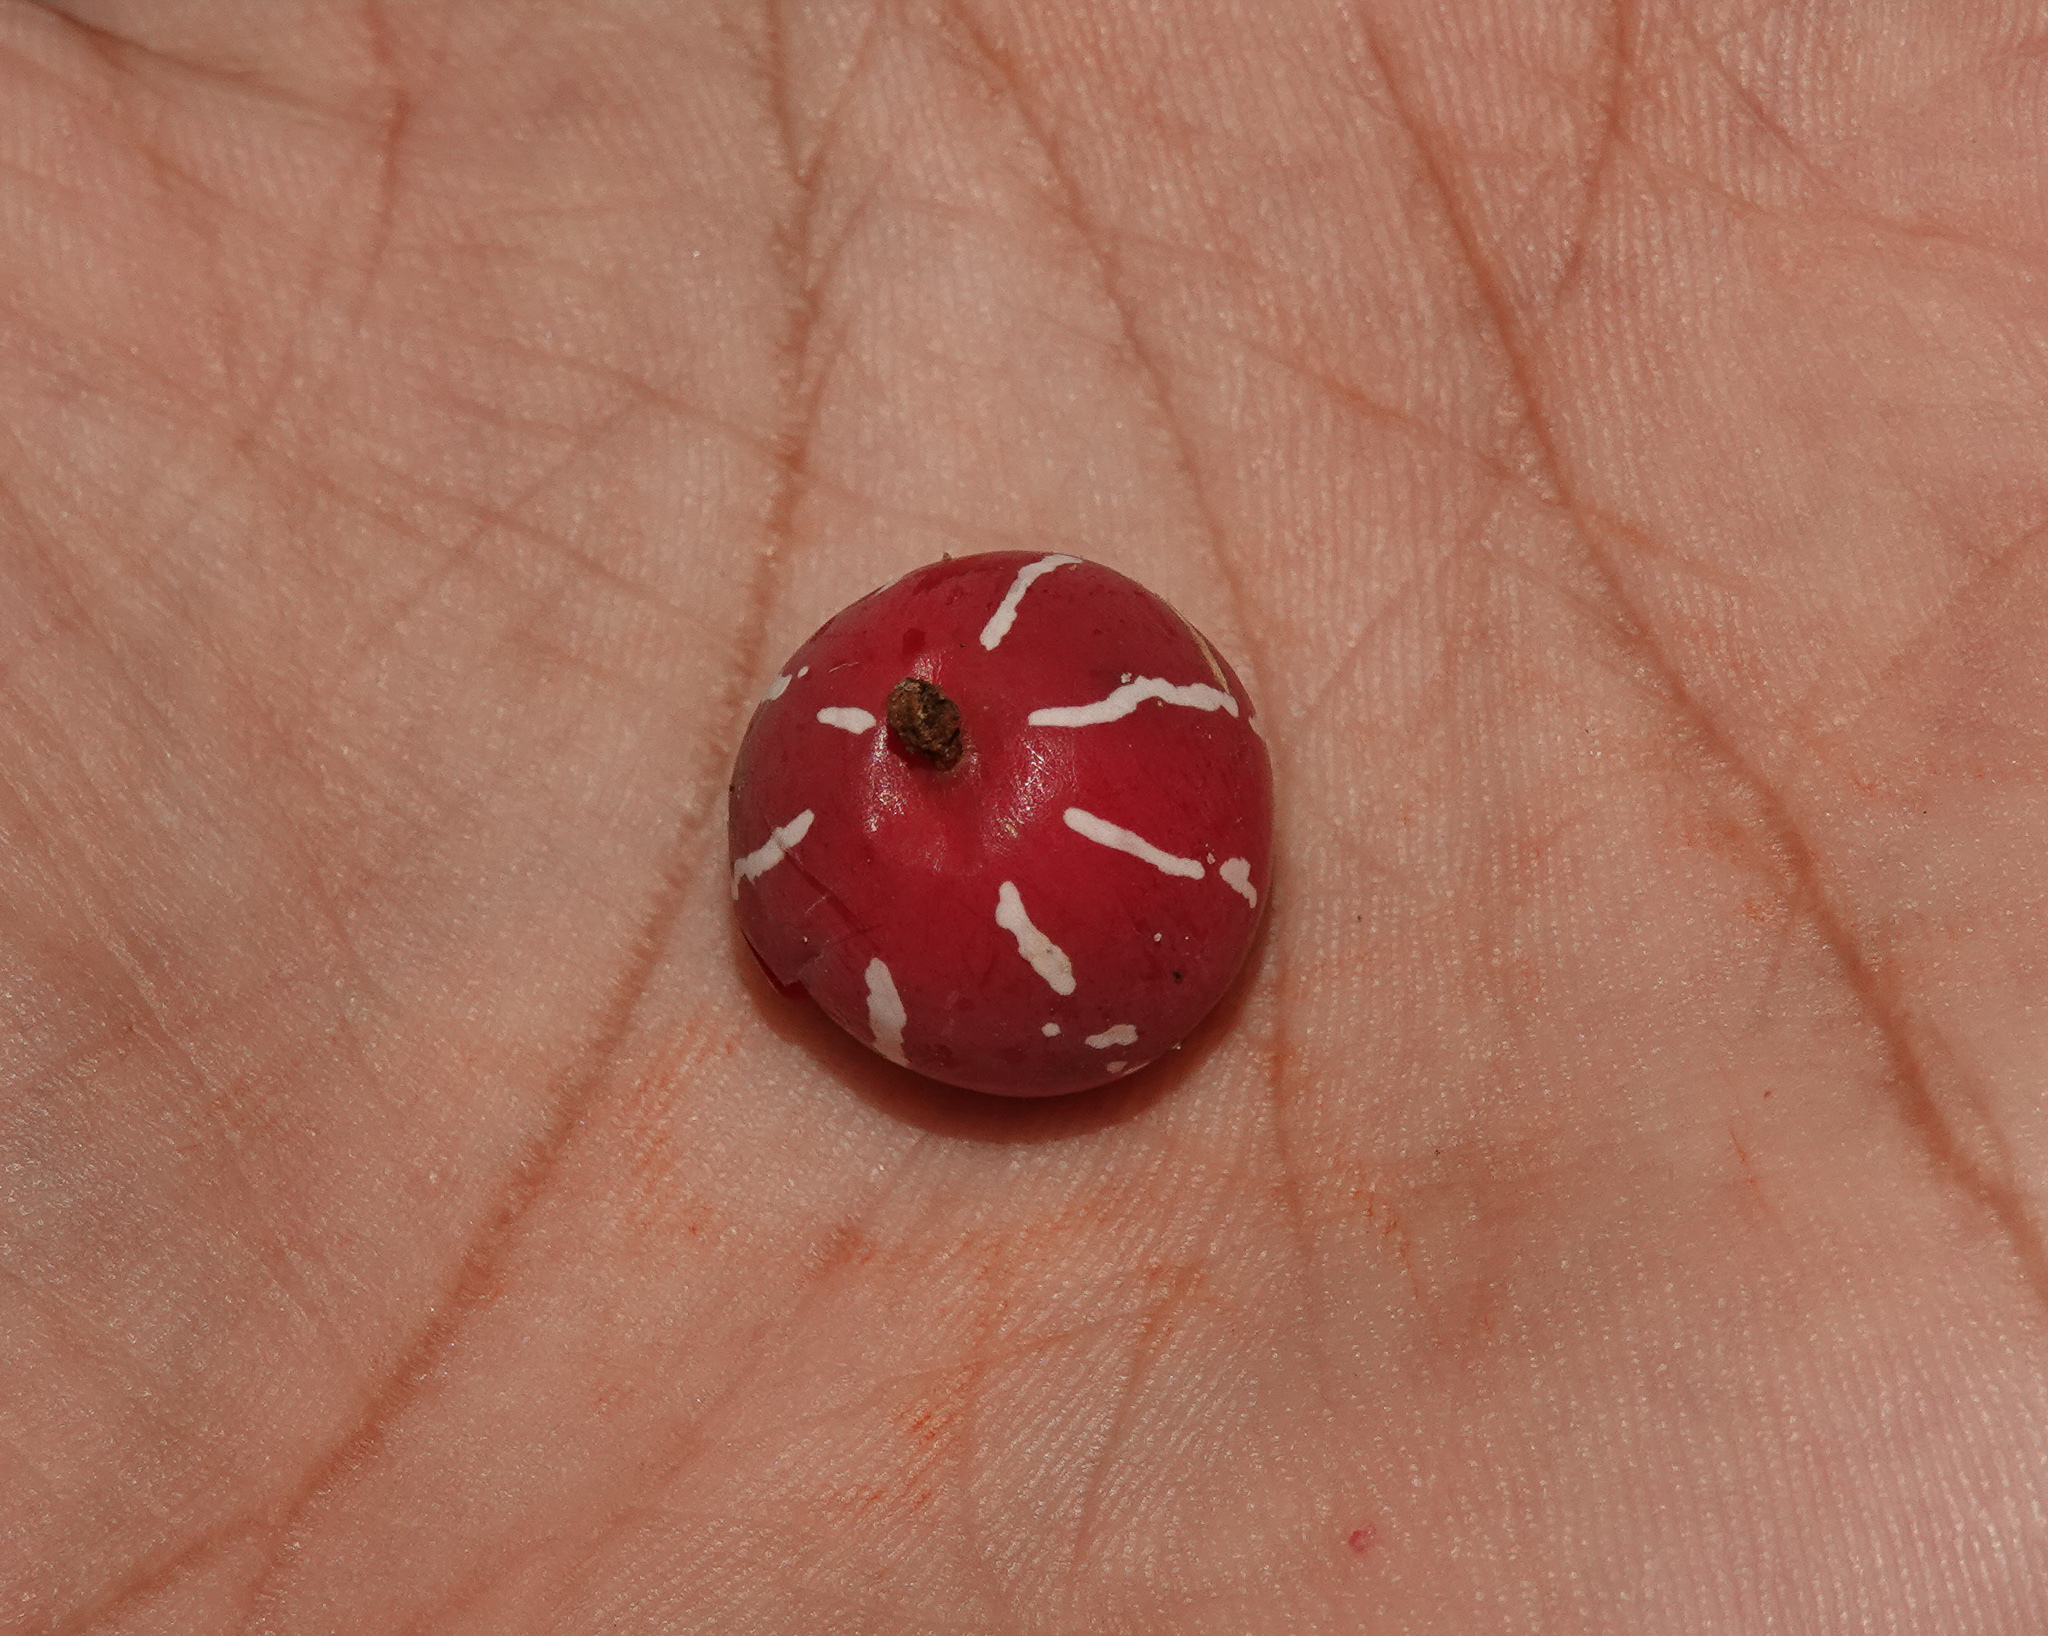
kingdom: Plantae
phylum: Tracheophyta
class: Magnoliopsida
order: Cucurbitales
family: Cucurbitaceae
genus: Diplocyclos
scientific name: Diplocyclos palmatus
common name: Striped-cucumber
